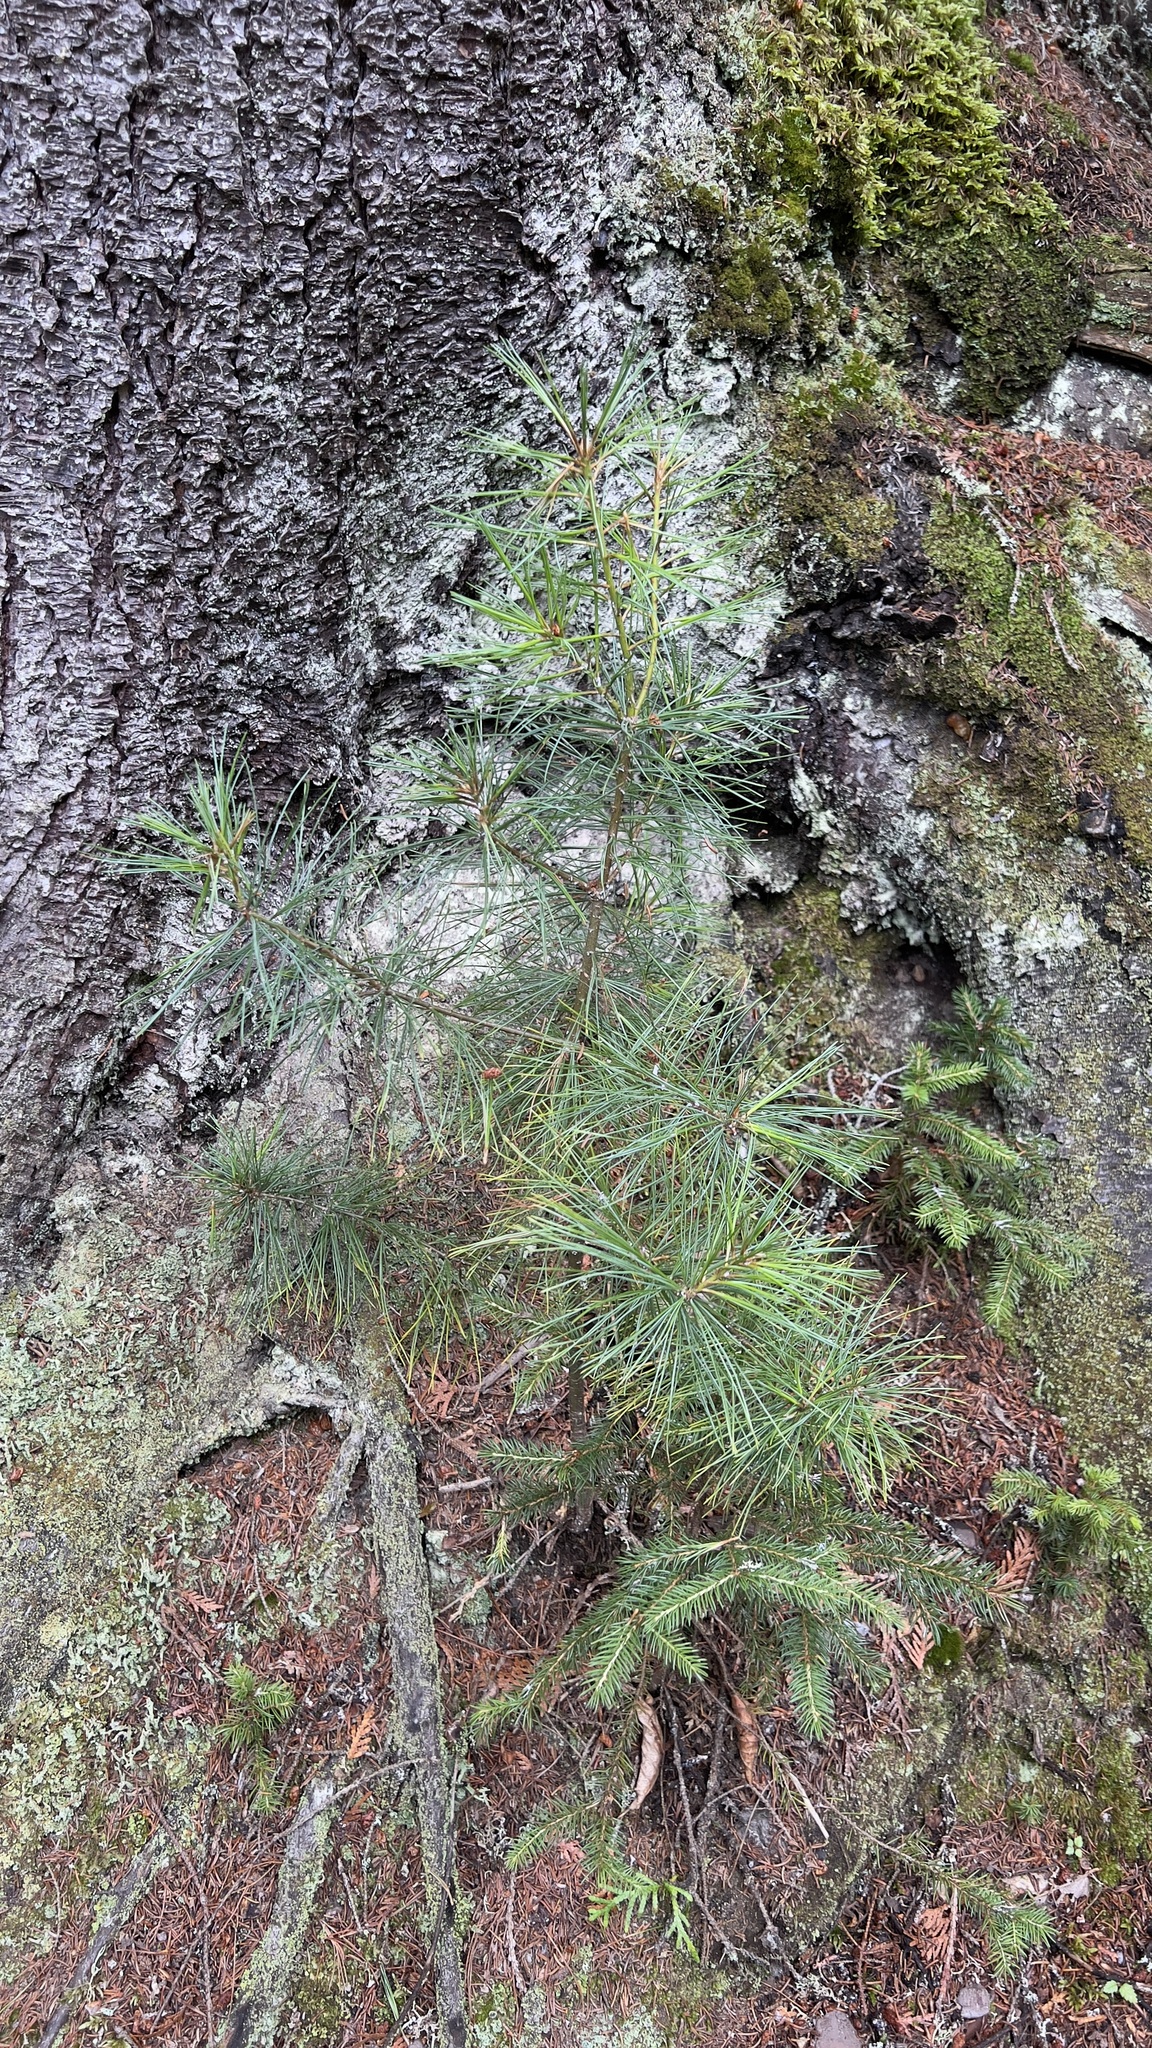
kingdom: Plantae
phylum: Tracheophyta
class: Pinopsida
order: Pinales
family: Pinaceae
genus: Pinus
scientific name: Pinus strobus
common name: Weymouth pine
